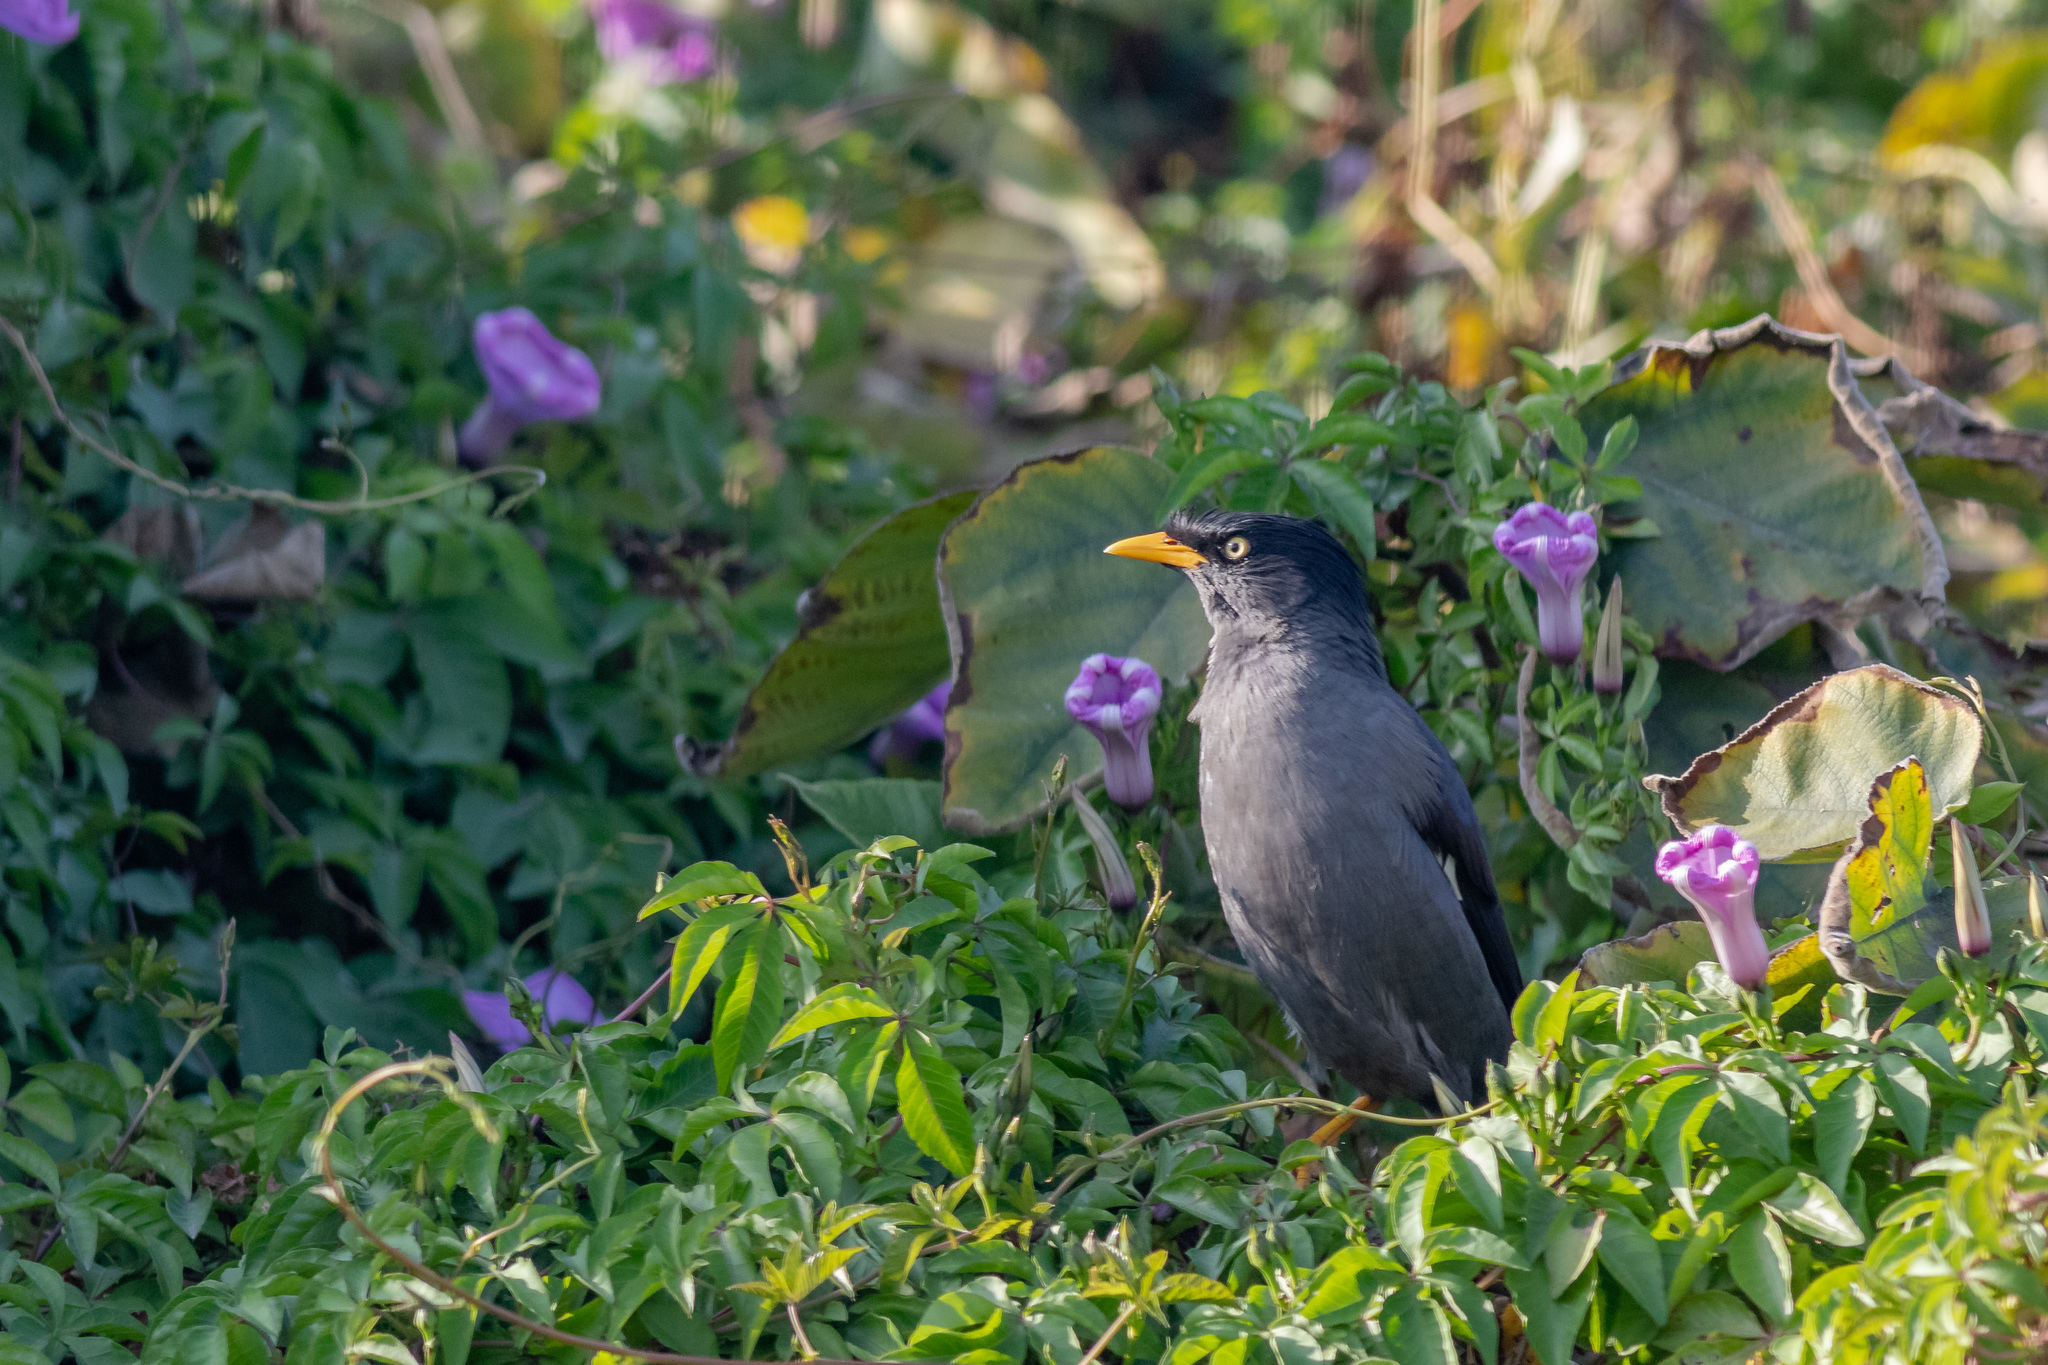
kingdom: Animalia
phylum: Chordata
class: Aves
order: Passeriformes
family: Sturnidae
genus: Acridotheres
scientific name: Acridotheres javanicus
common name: Javan myna
